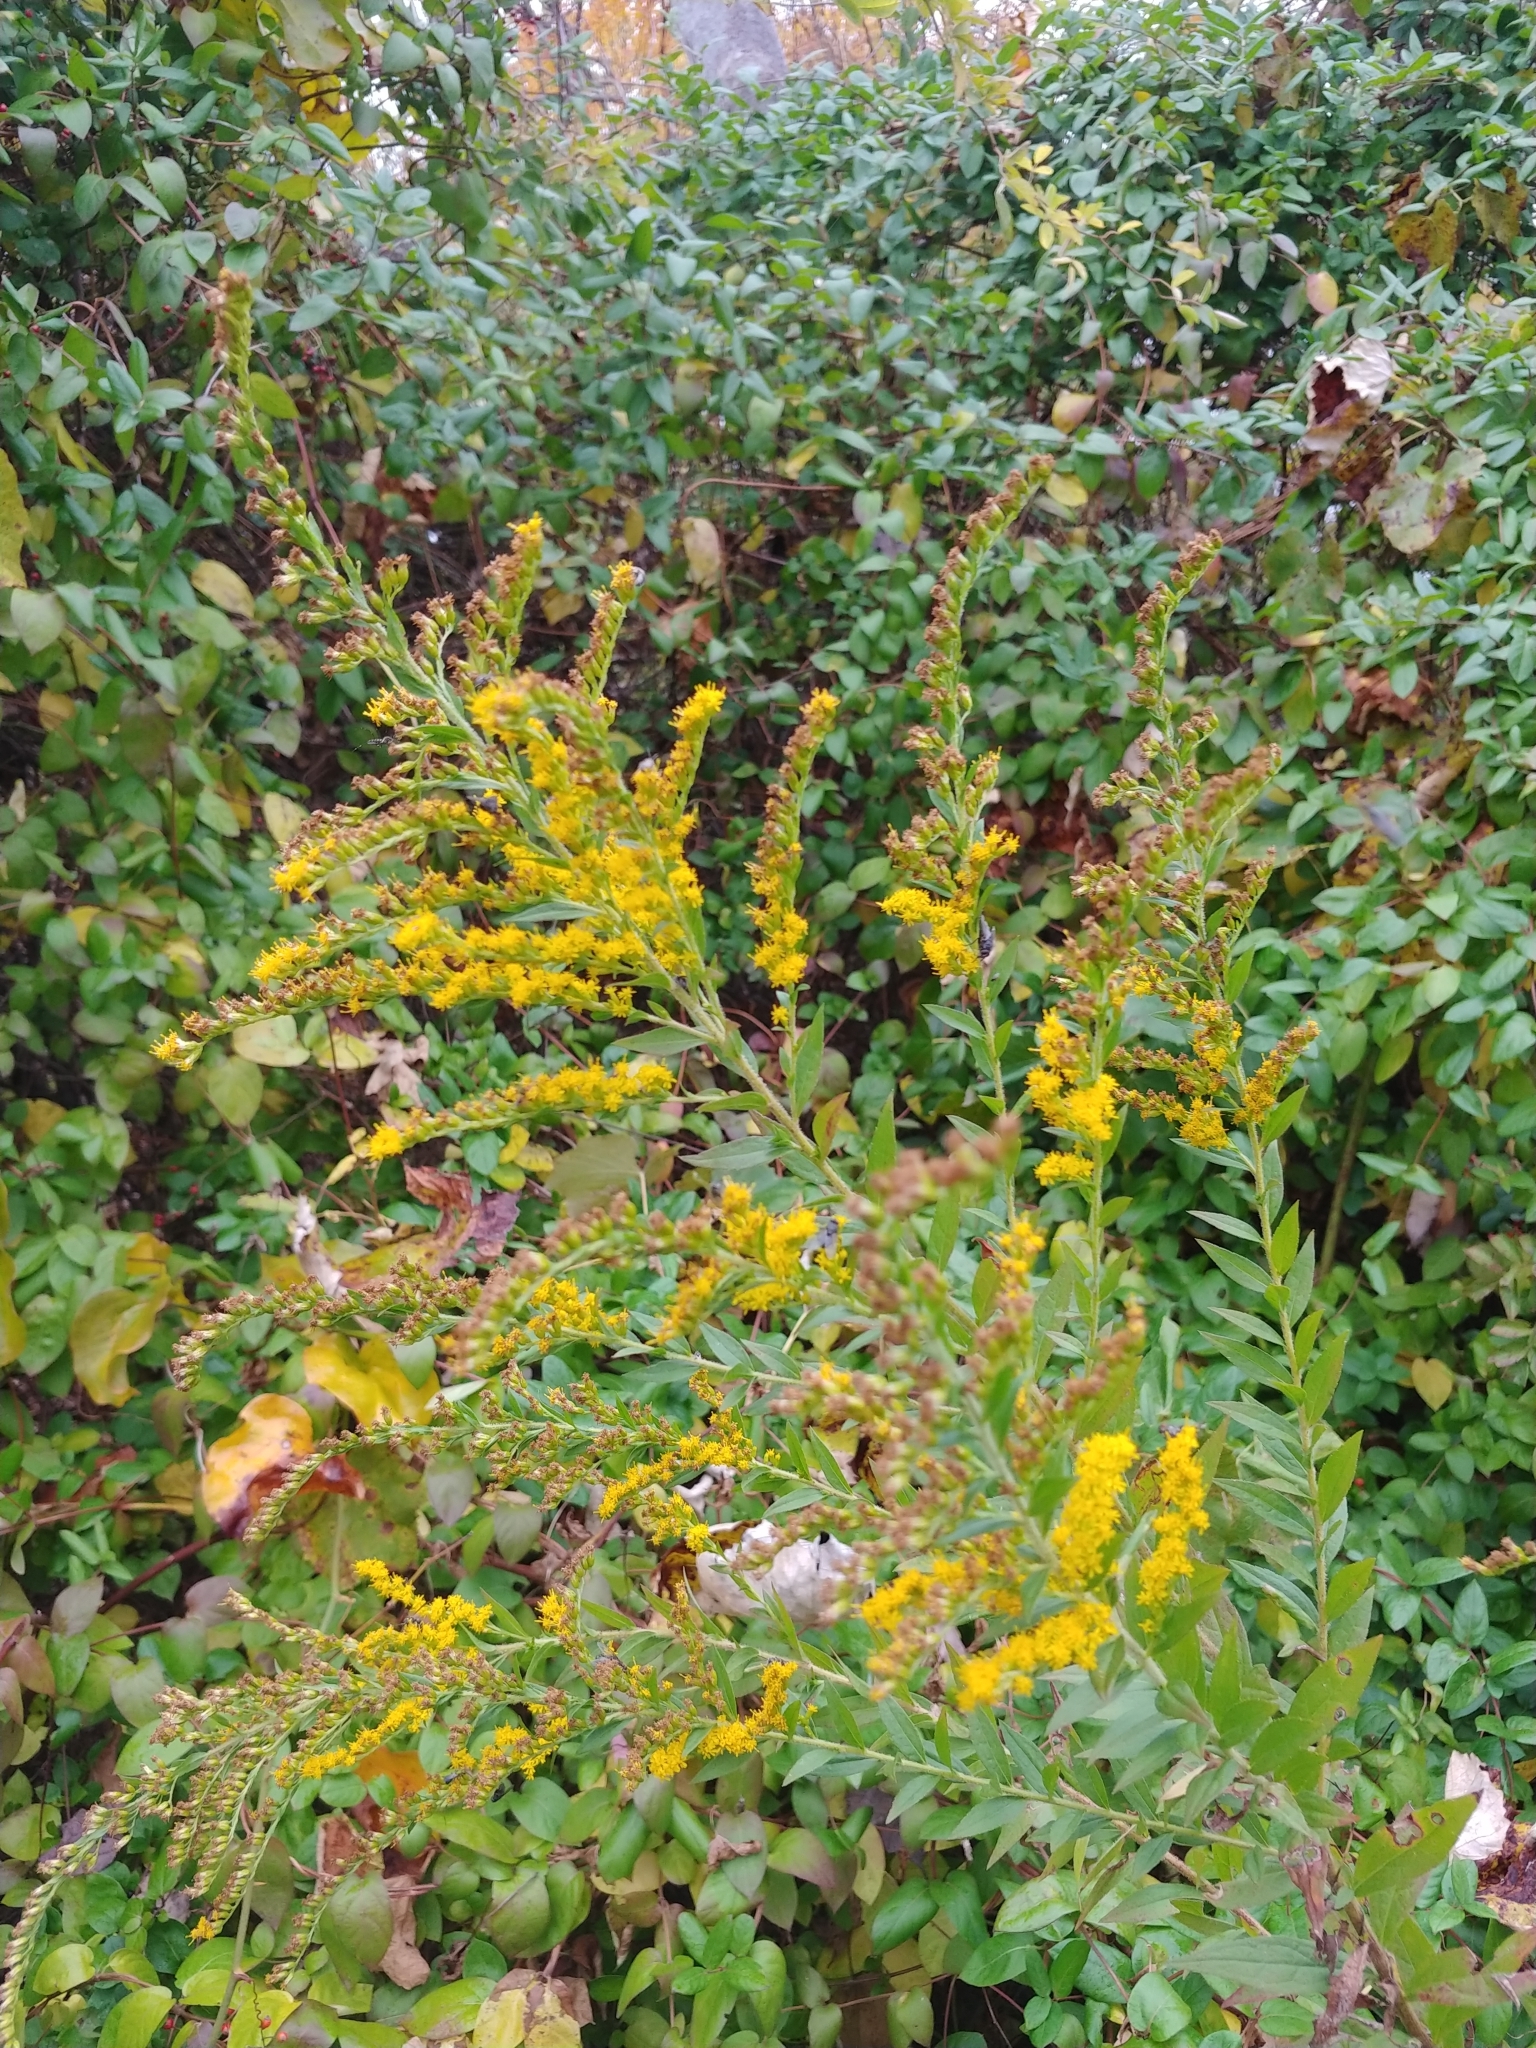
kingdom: Plantae
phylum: Tracheophyta
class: Magnoliopsida
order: Asterales
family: Asteraceae
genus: Solidago
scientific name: Solidago rugosa
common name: Rough-stemmed goldenrod
